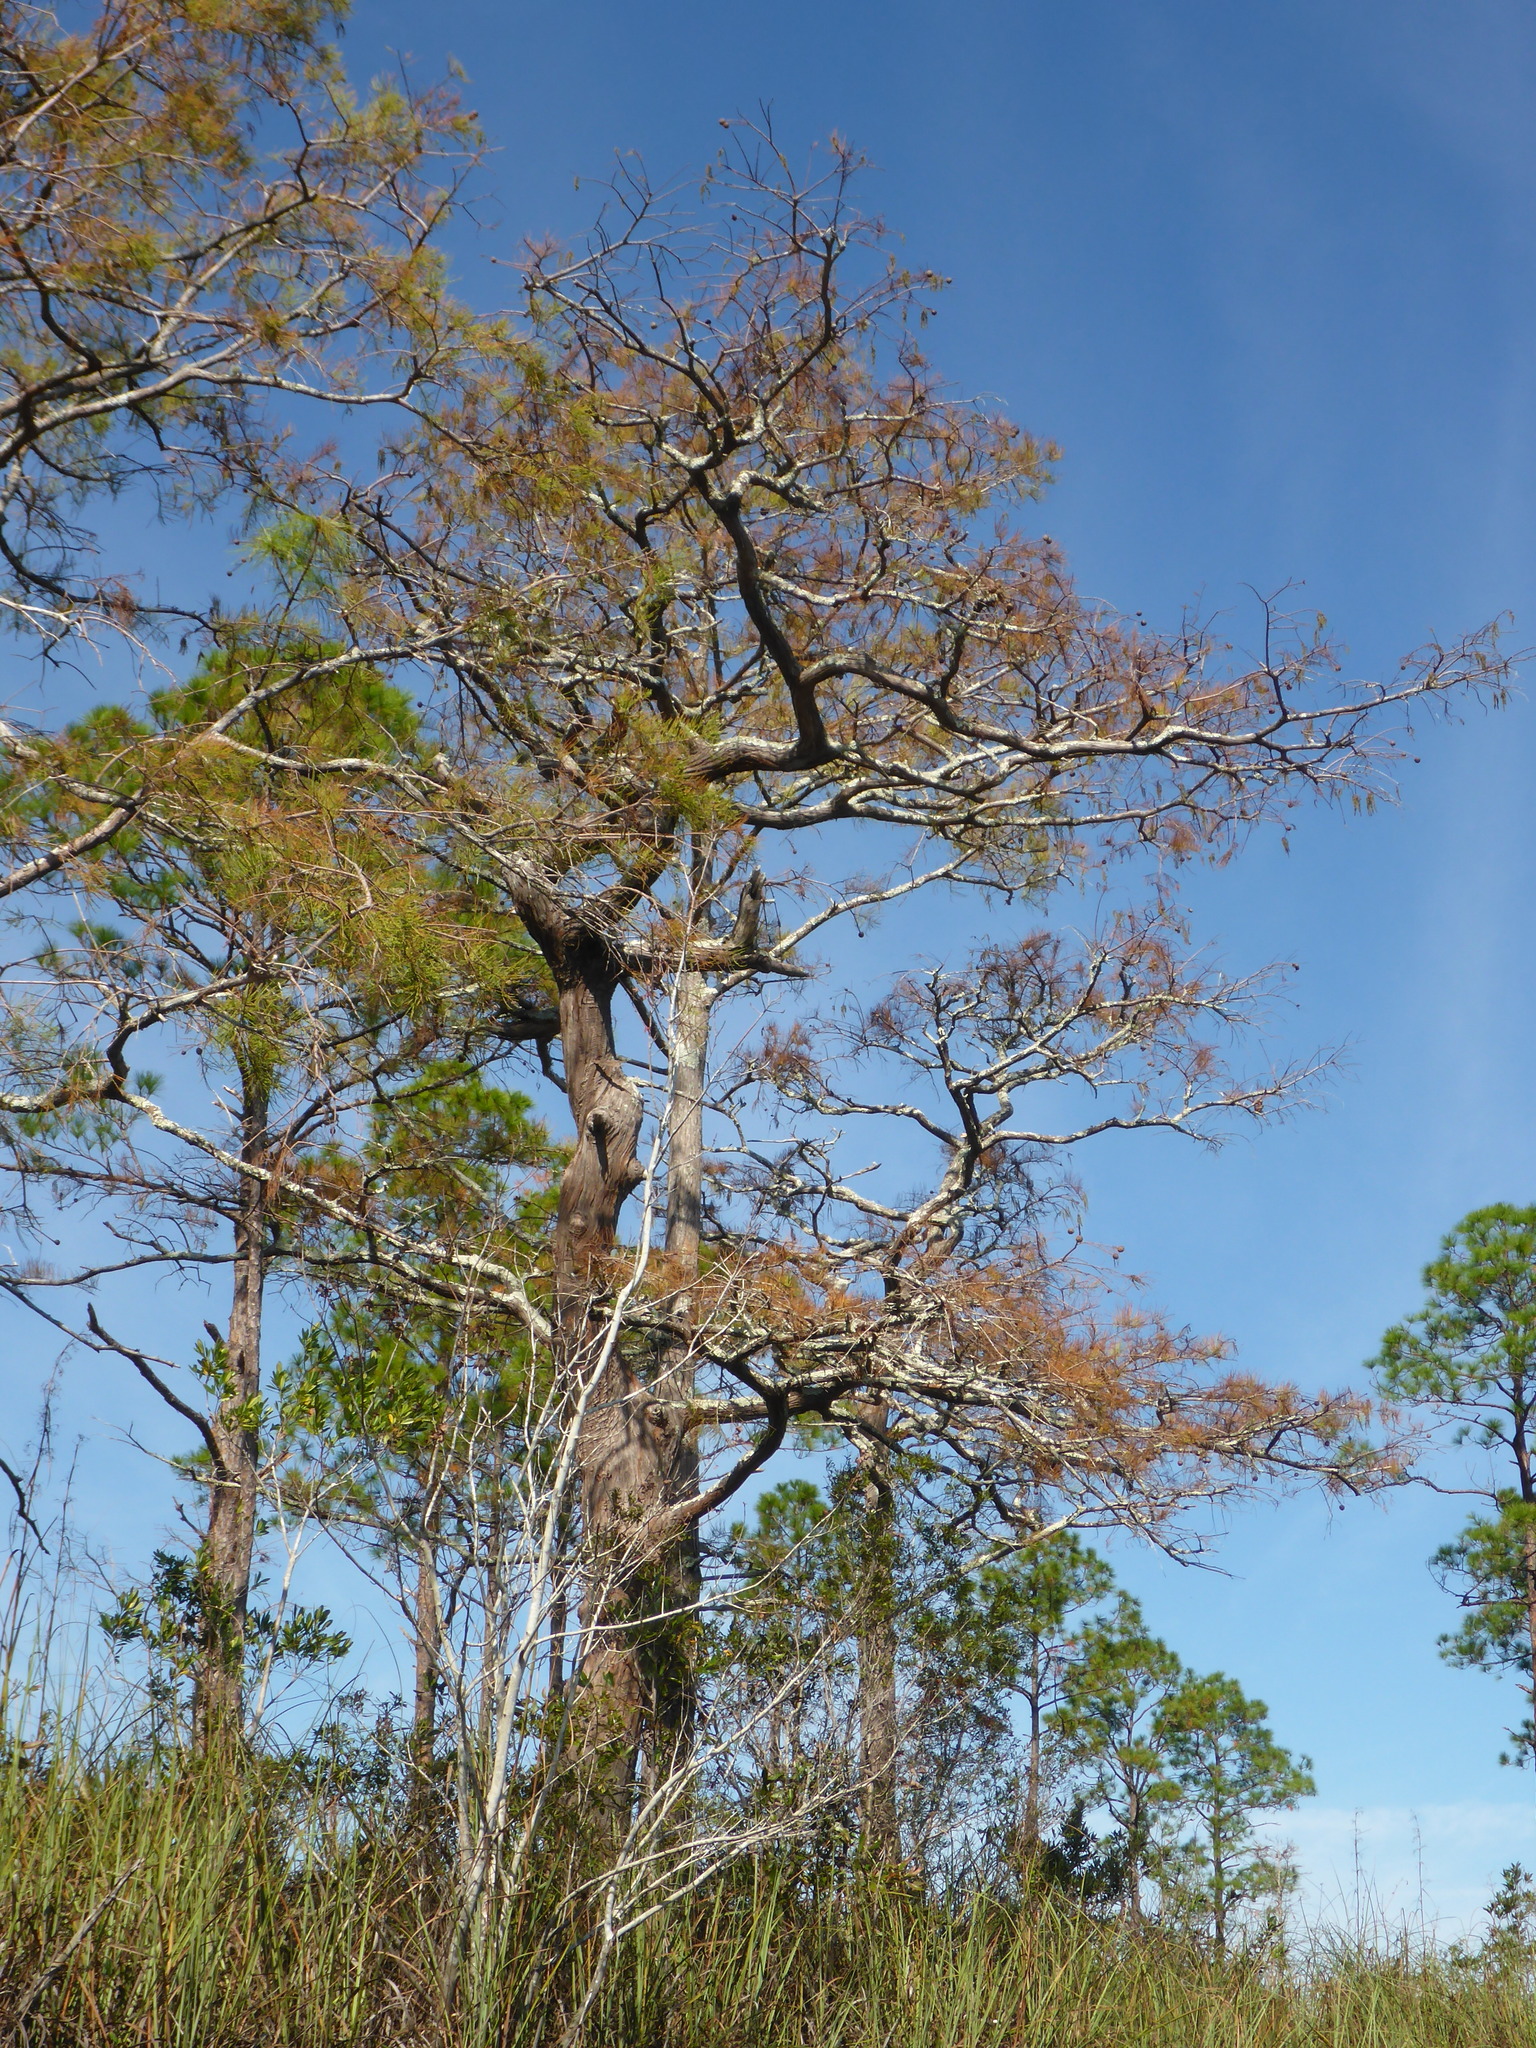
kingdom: Plantae
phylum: Tracheophyta
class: Pinopsida
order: Pinales
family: Cupressaceae
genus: Taxodium
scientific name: Taxodium distichum
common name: Bald cypress
